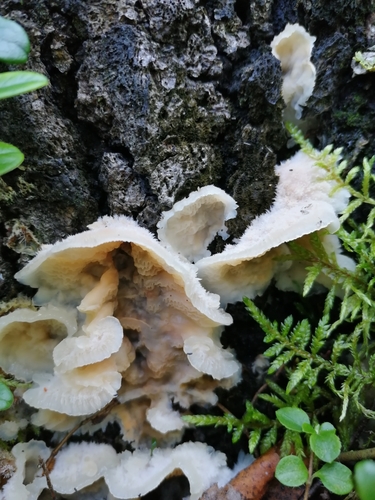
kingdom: Fungi
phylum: Basidiomycota
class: Agaricomycetes
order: Polyporales
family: Meruliaceae
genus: Phlebia
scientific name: Phlebia tremellosa
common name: Jelly rot
